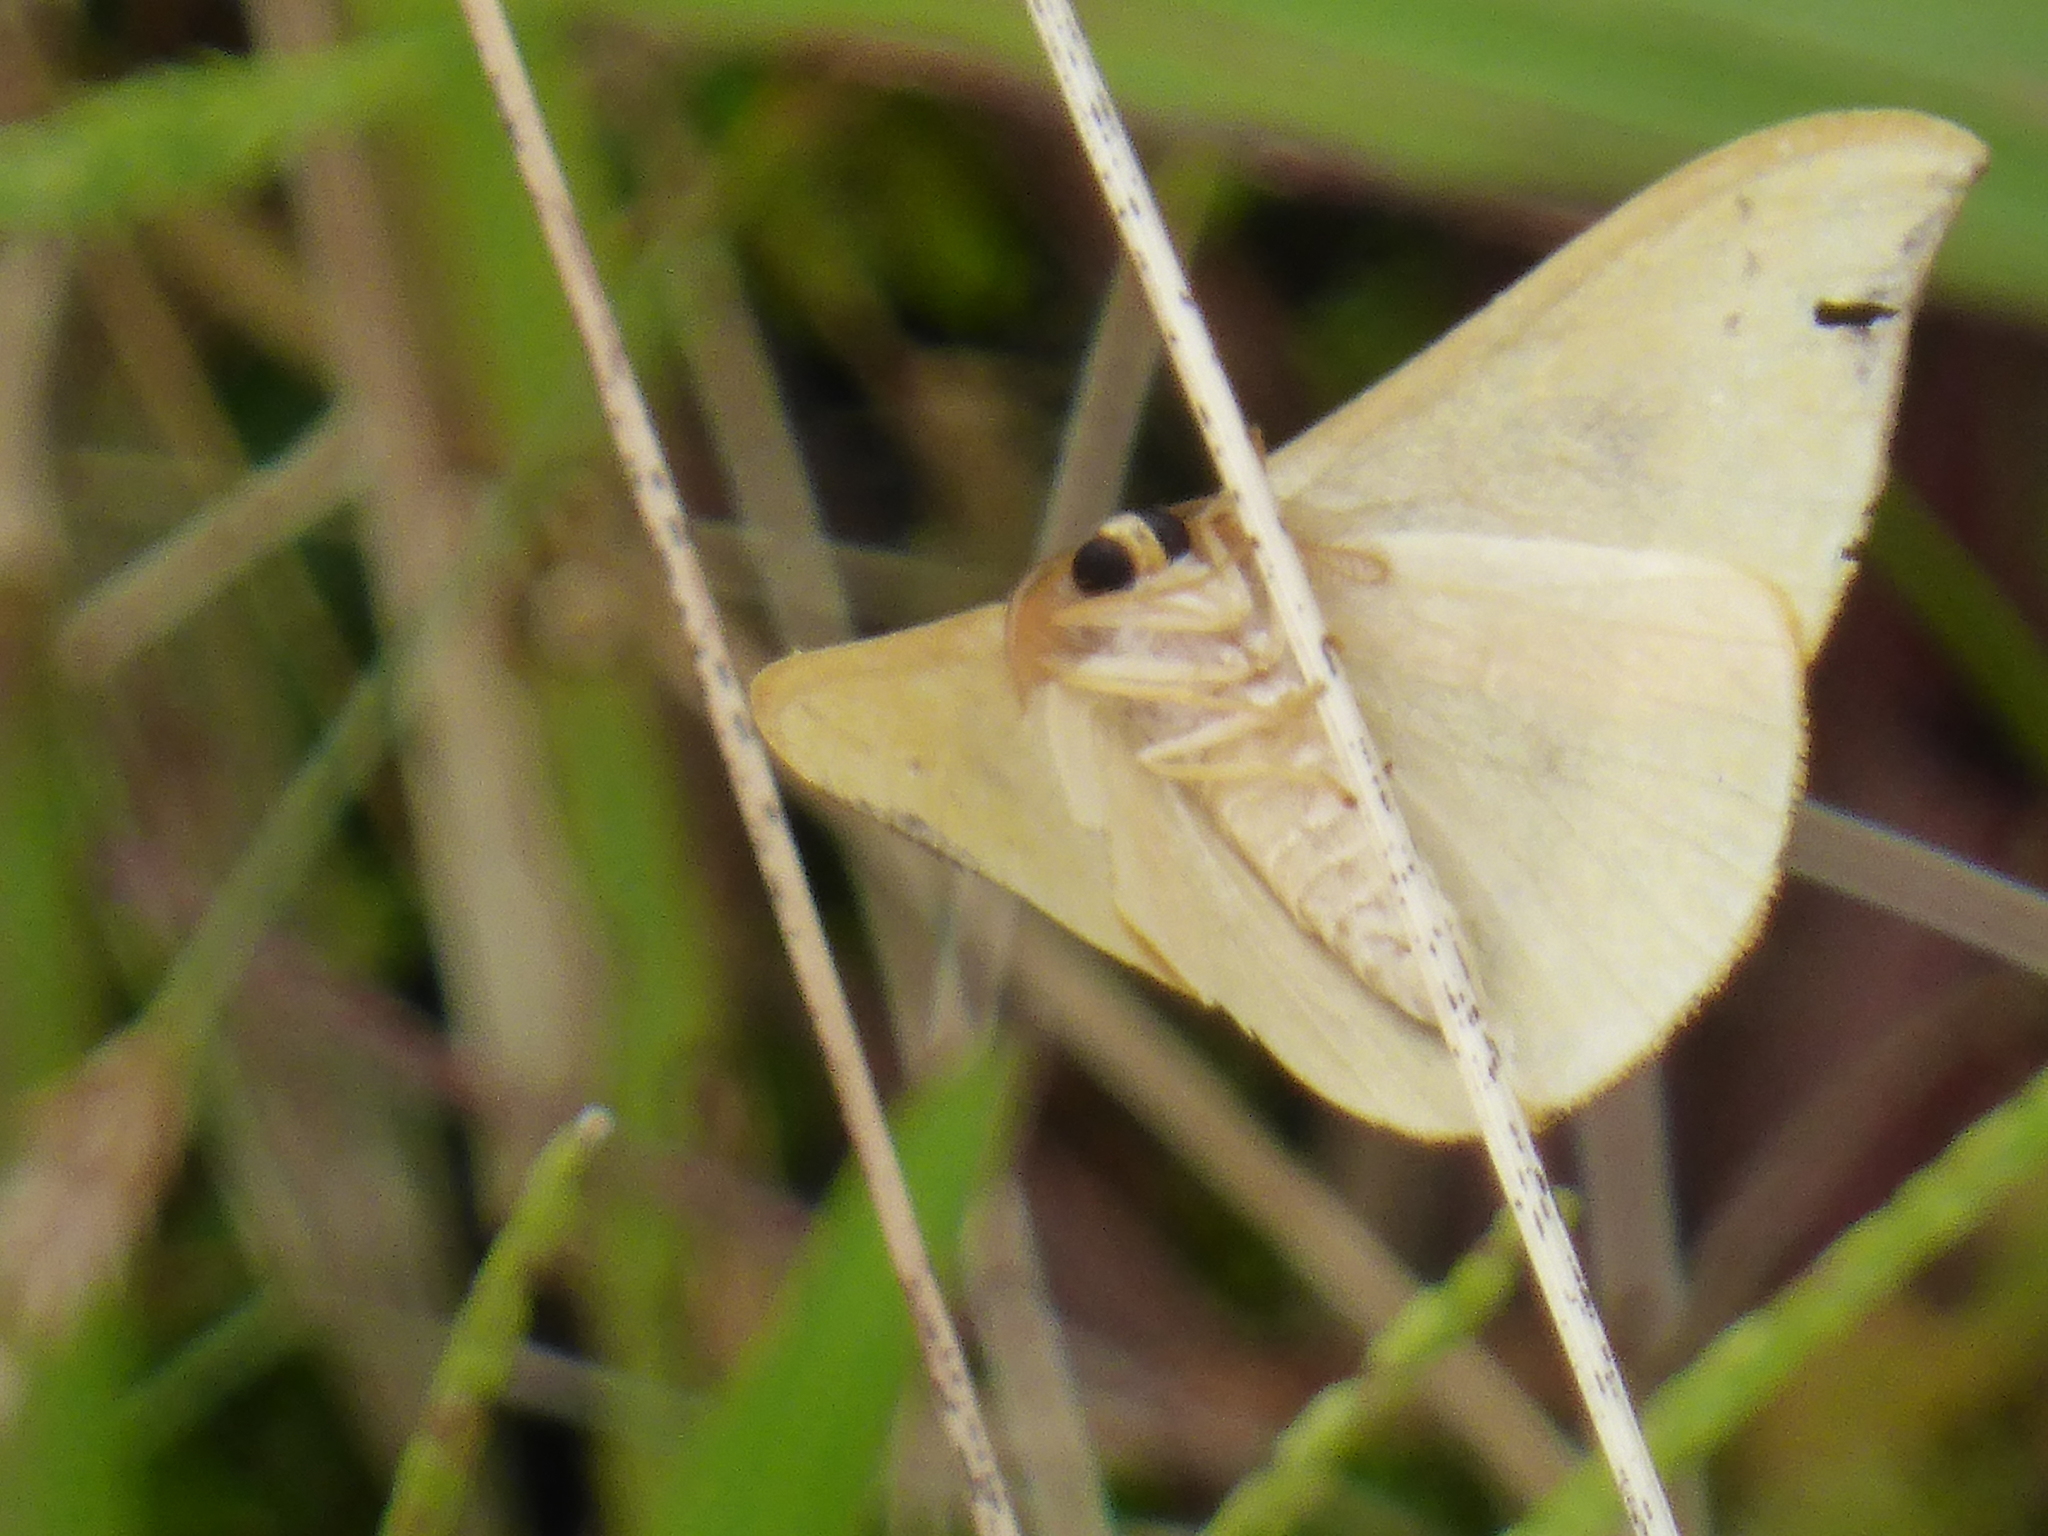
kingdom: Animalia
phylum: Arthropoda
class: Insecta
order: Lepidoptera
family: Drepanidae
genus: Tridrepana
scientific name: Tridrepana fulvata
